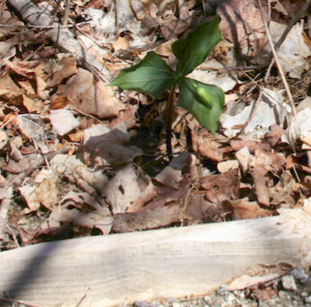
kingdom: Plantae
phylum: Tracheophyta
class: Liliopsida
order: Liliales
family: Melanthiaceae
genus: Trillium
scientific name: Trillium erectum
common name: Purple trillium
